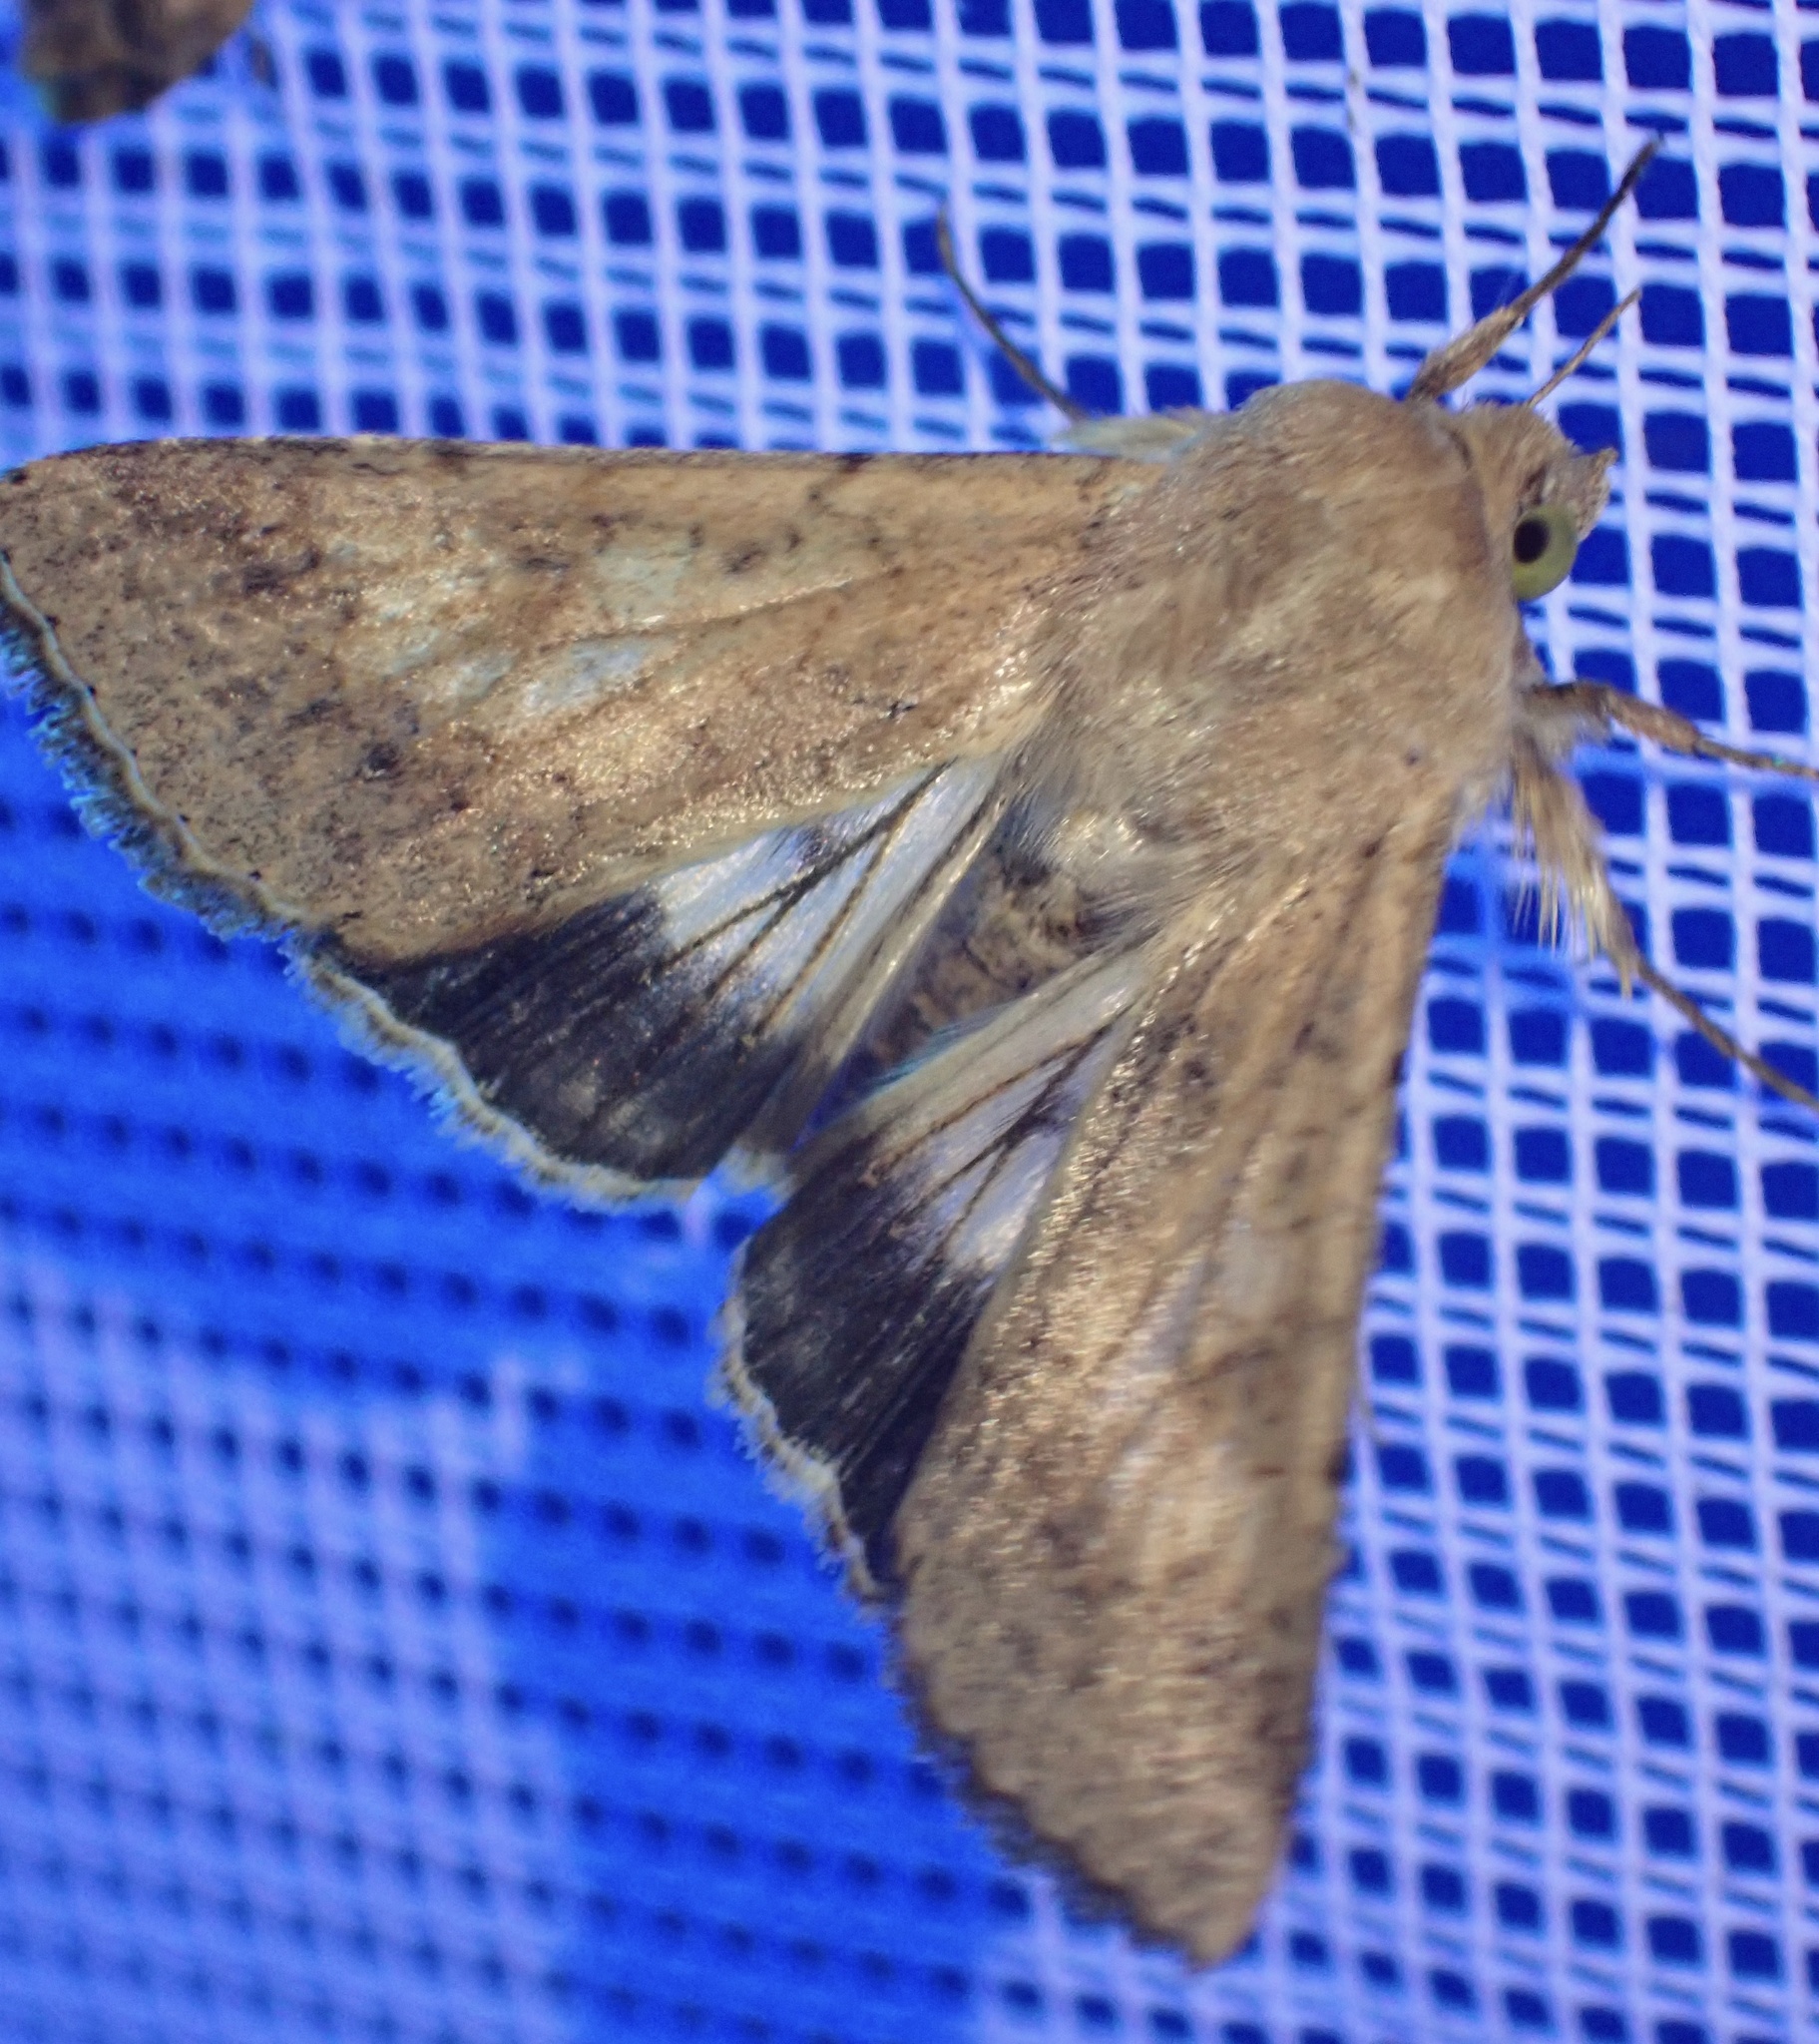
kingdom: Animalia
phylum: Arthropoda
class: Insecta
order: Lepidoptera
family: Noctuidae
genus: Helicoverpa
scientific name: Helicoverpa armigera
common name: Cotton bollworm
